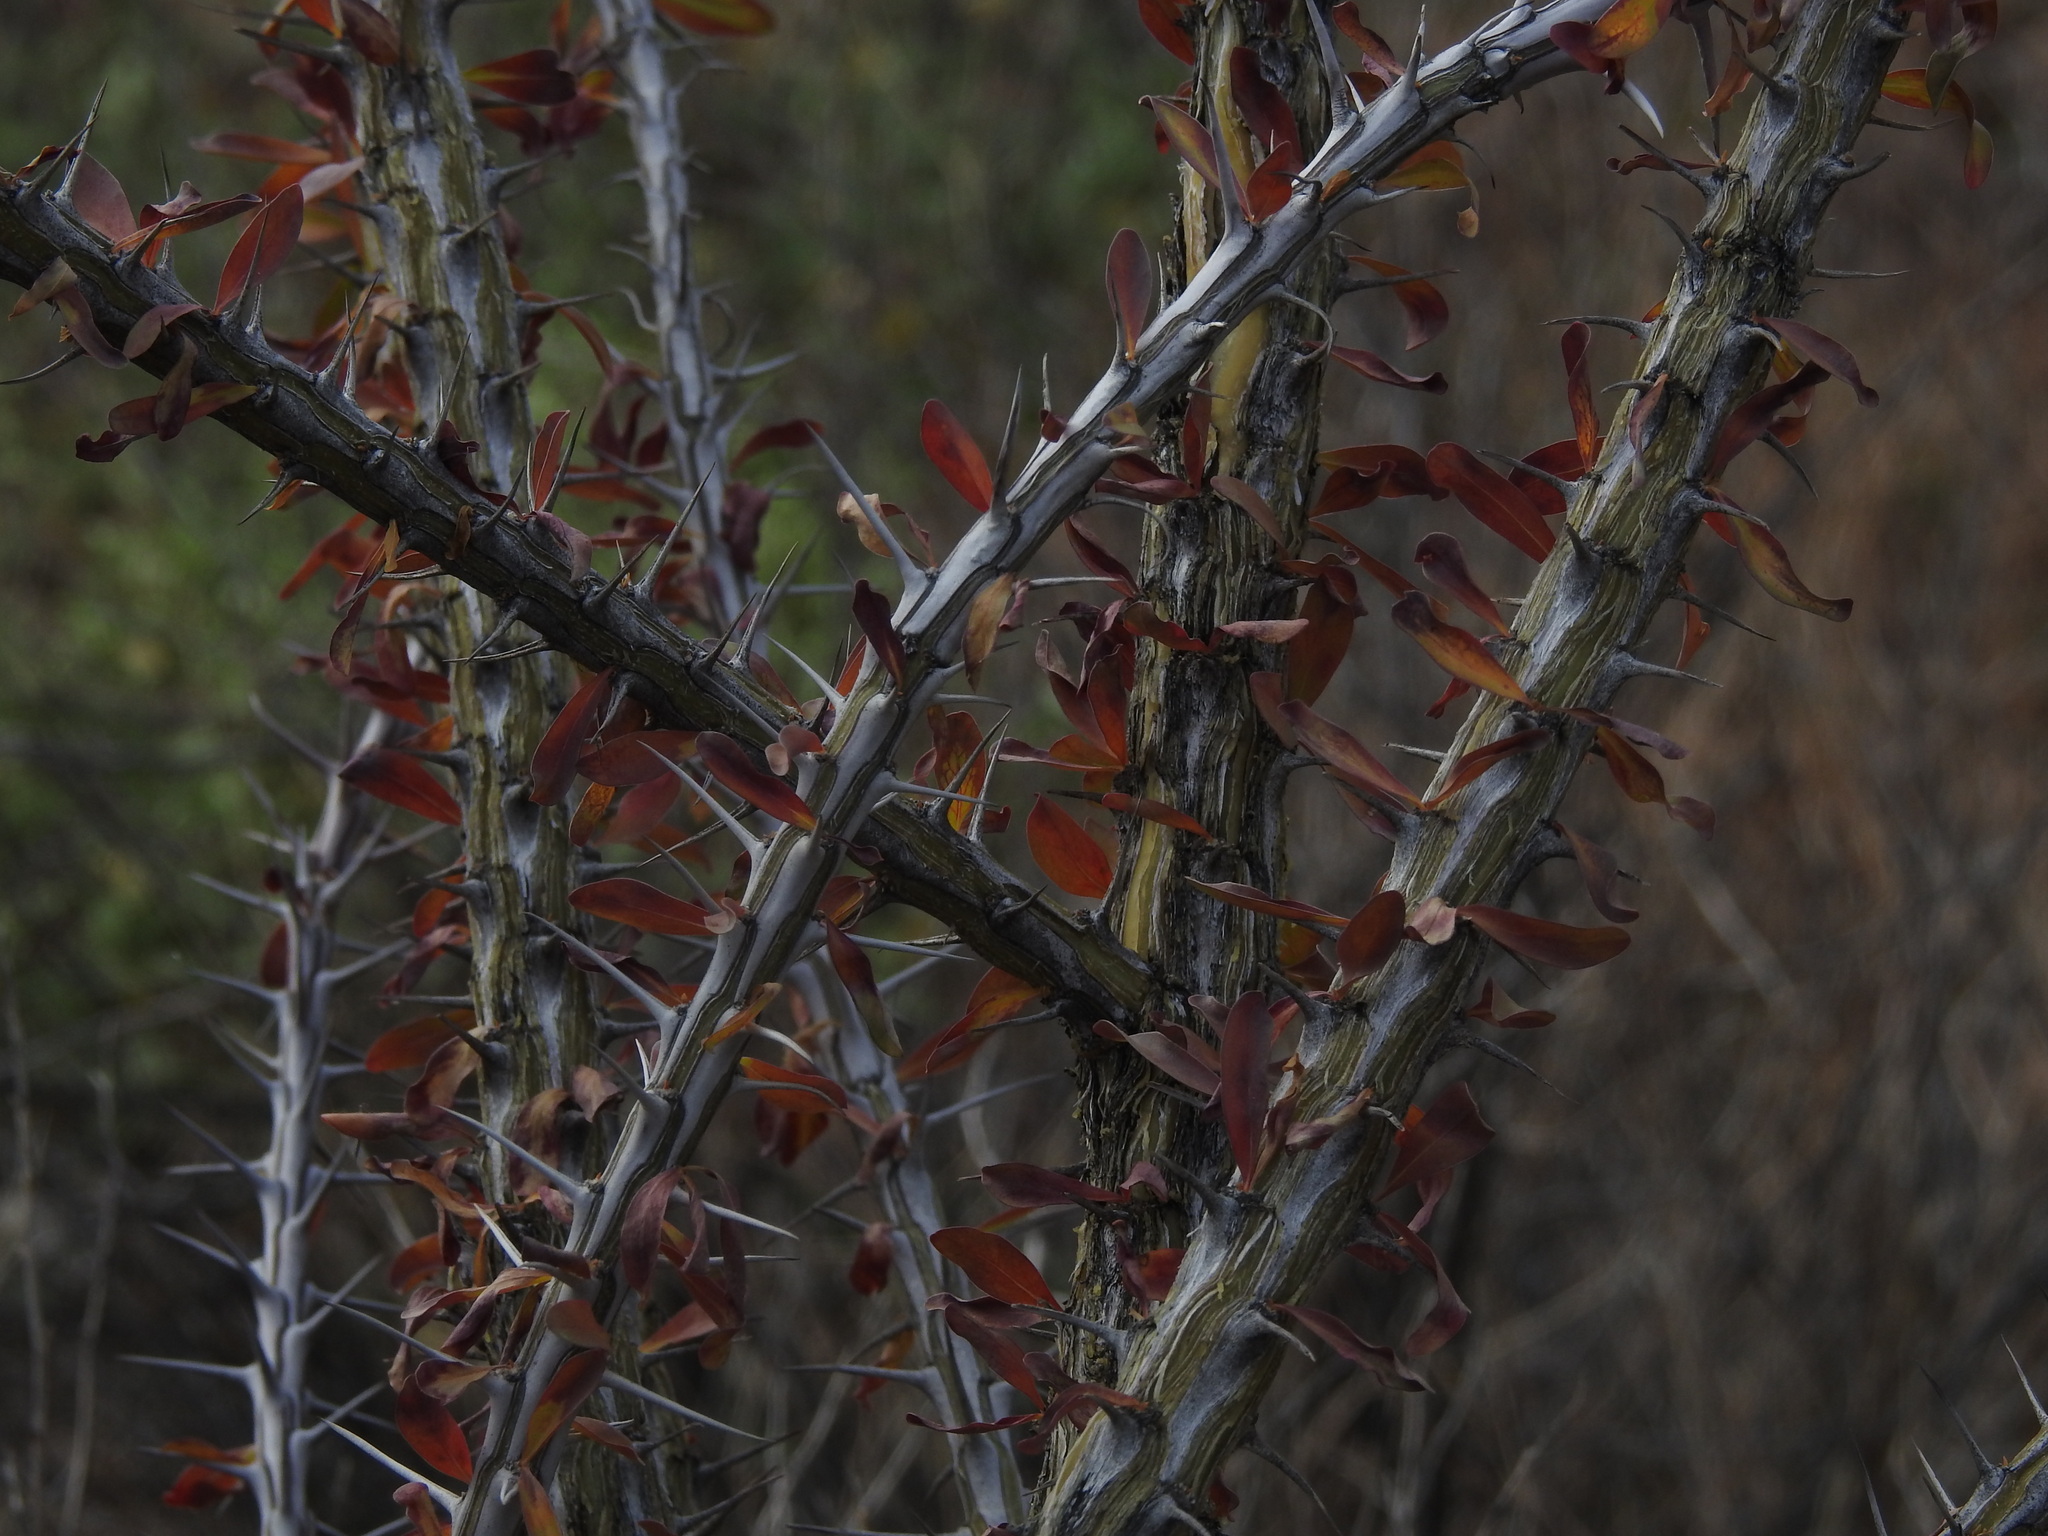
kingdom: Plantae
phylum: Tracheophyta
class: Magnoliopsida
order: Ericales
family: Fouquieriaceae
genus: Fouquieria
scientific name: Fouquieria splendens
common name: Vine-cactus
